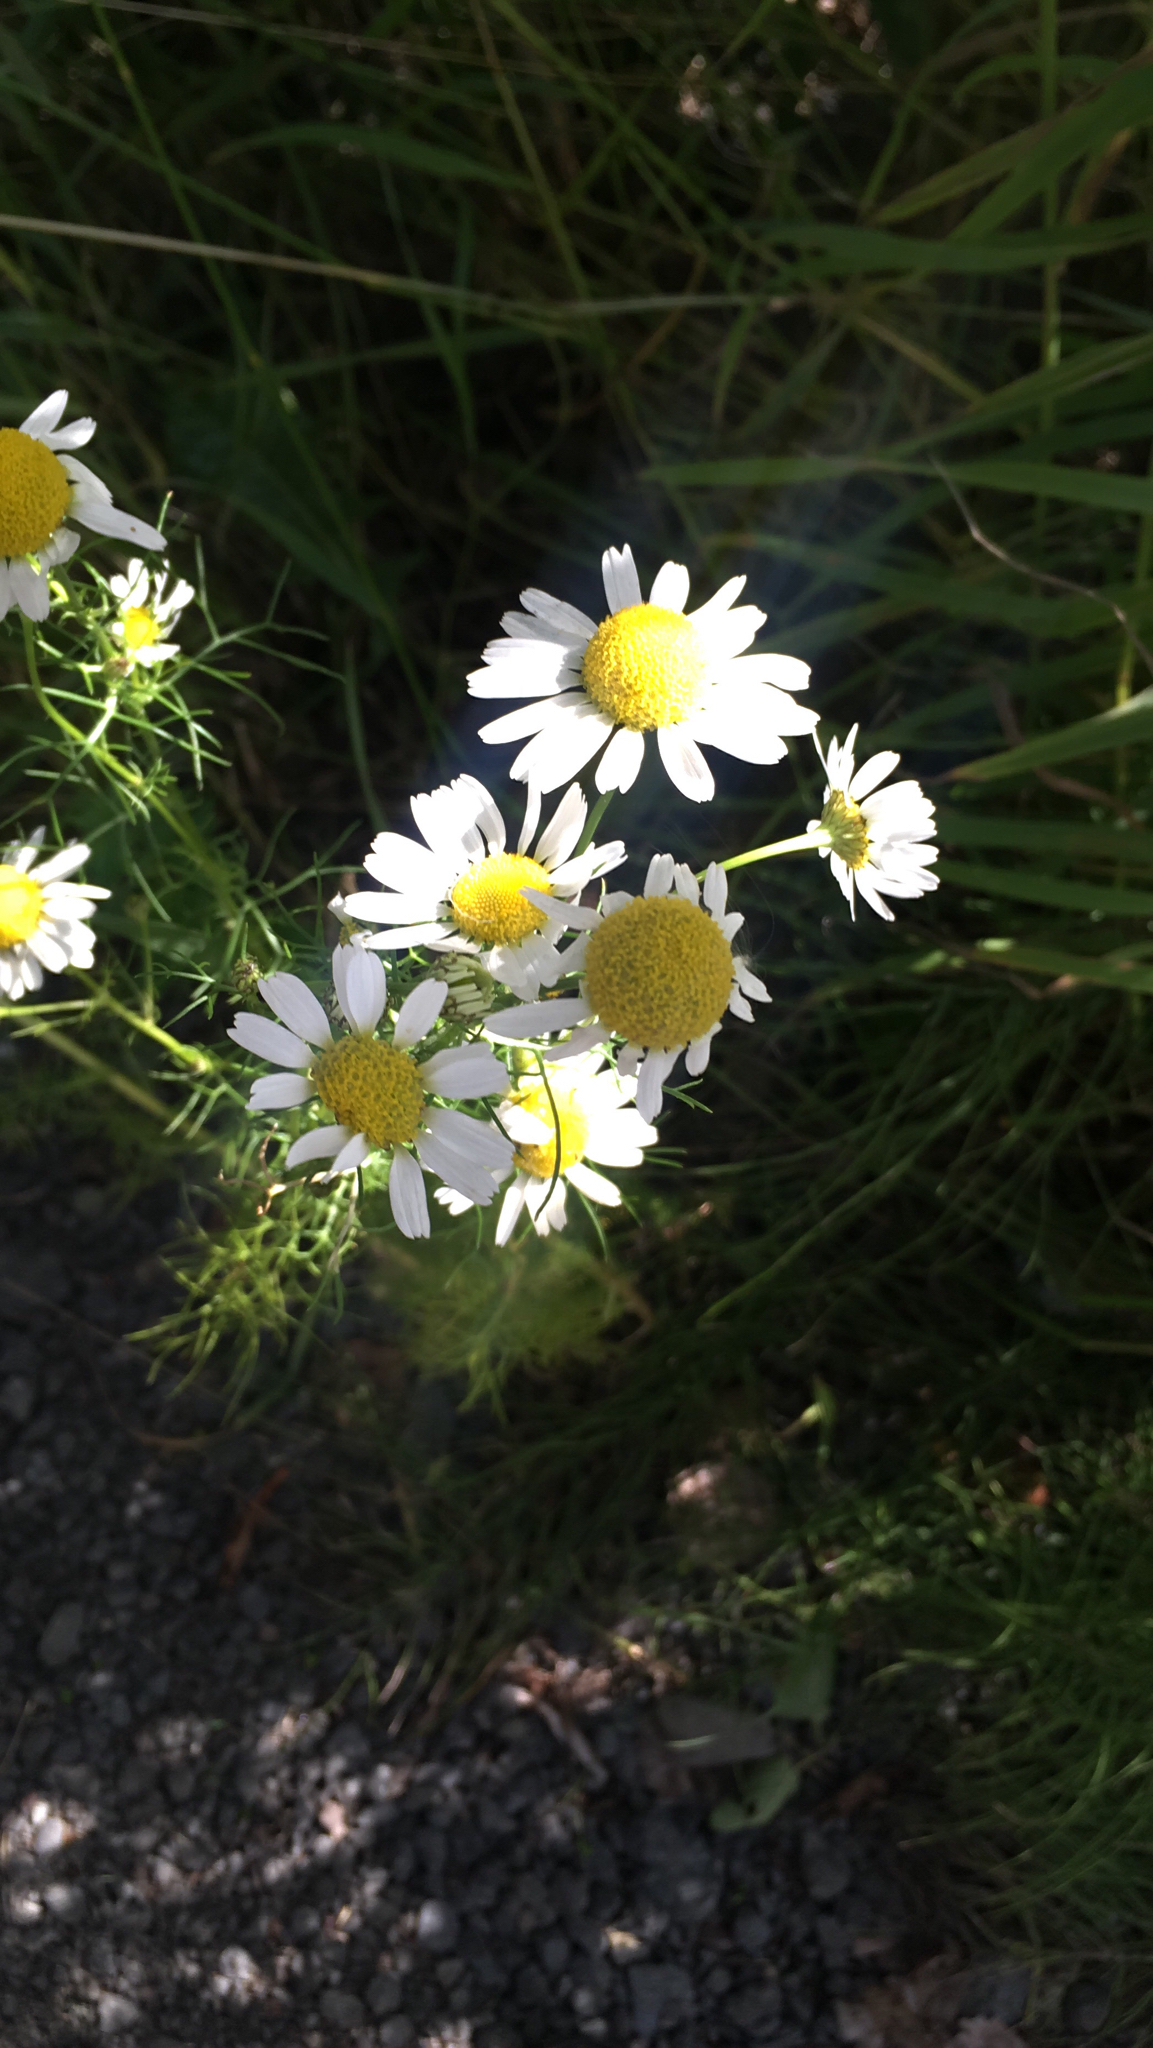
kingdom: Plantae
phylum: Tracheophyta
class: Magnoliopsida
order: Asterales
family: Asteraceae
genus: Tripleurospermum
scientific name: Tripleurospermum inodorum
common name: Scentless mayweed
